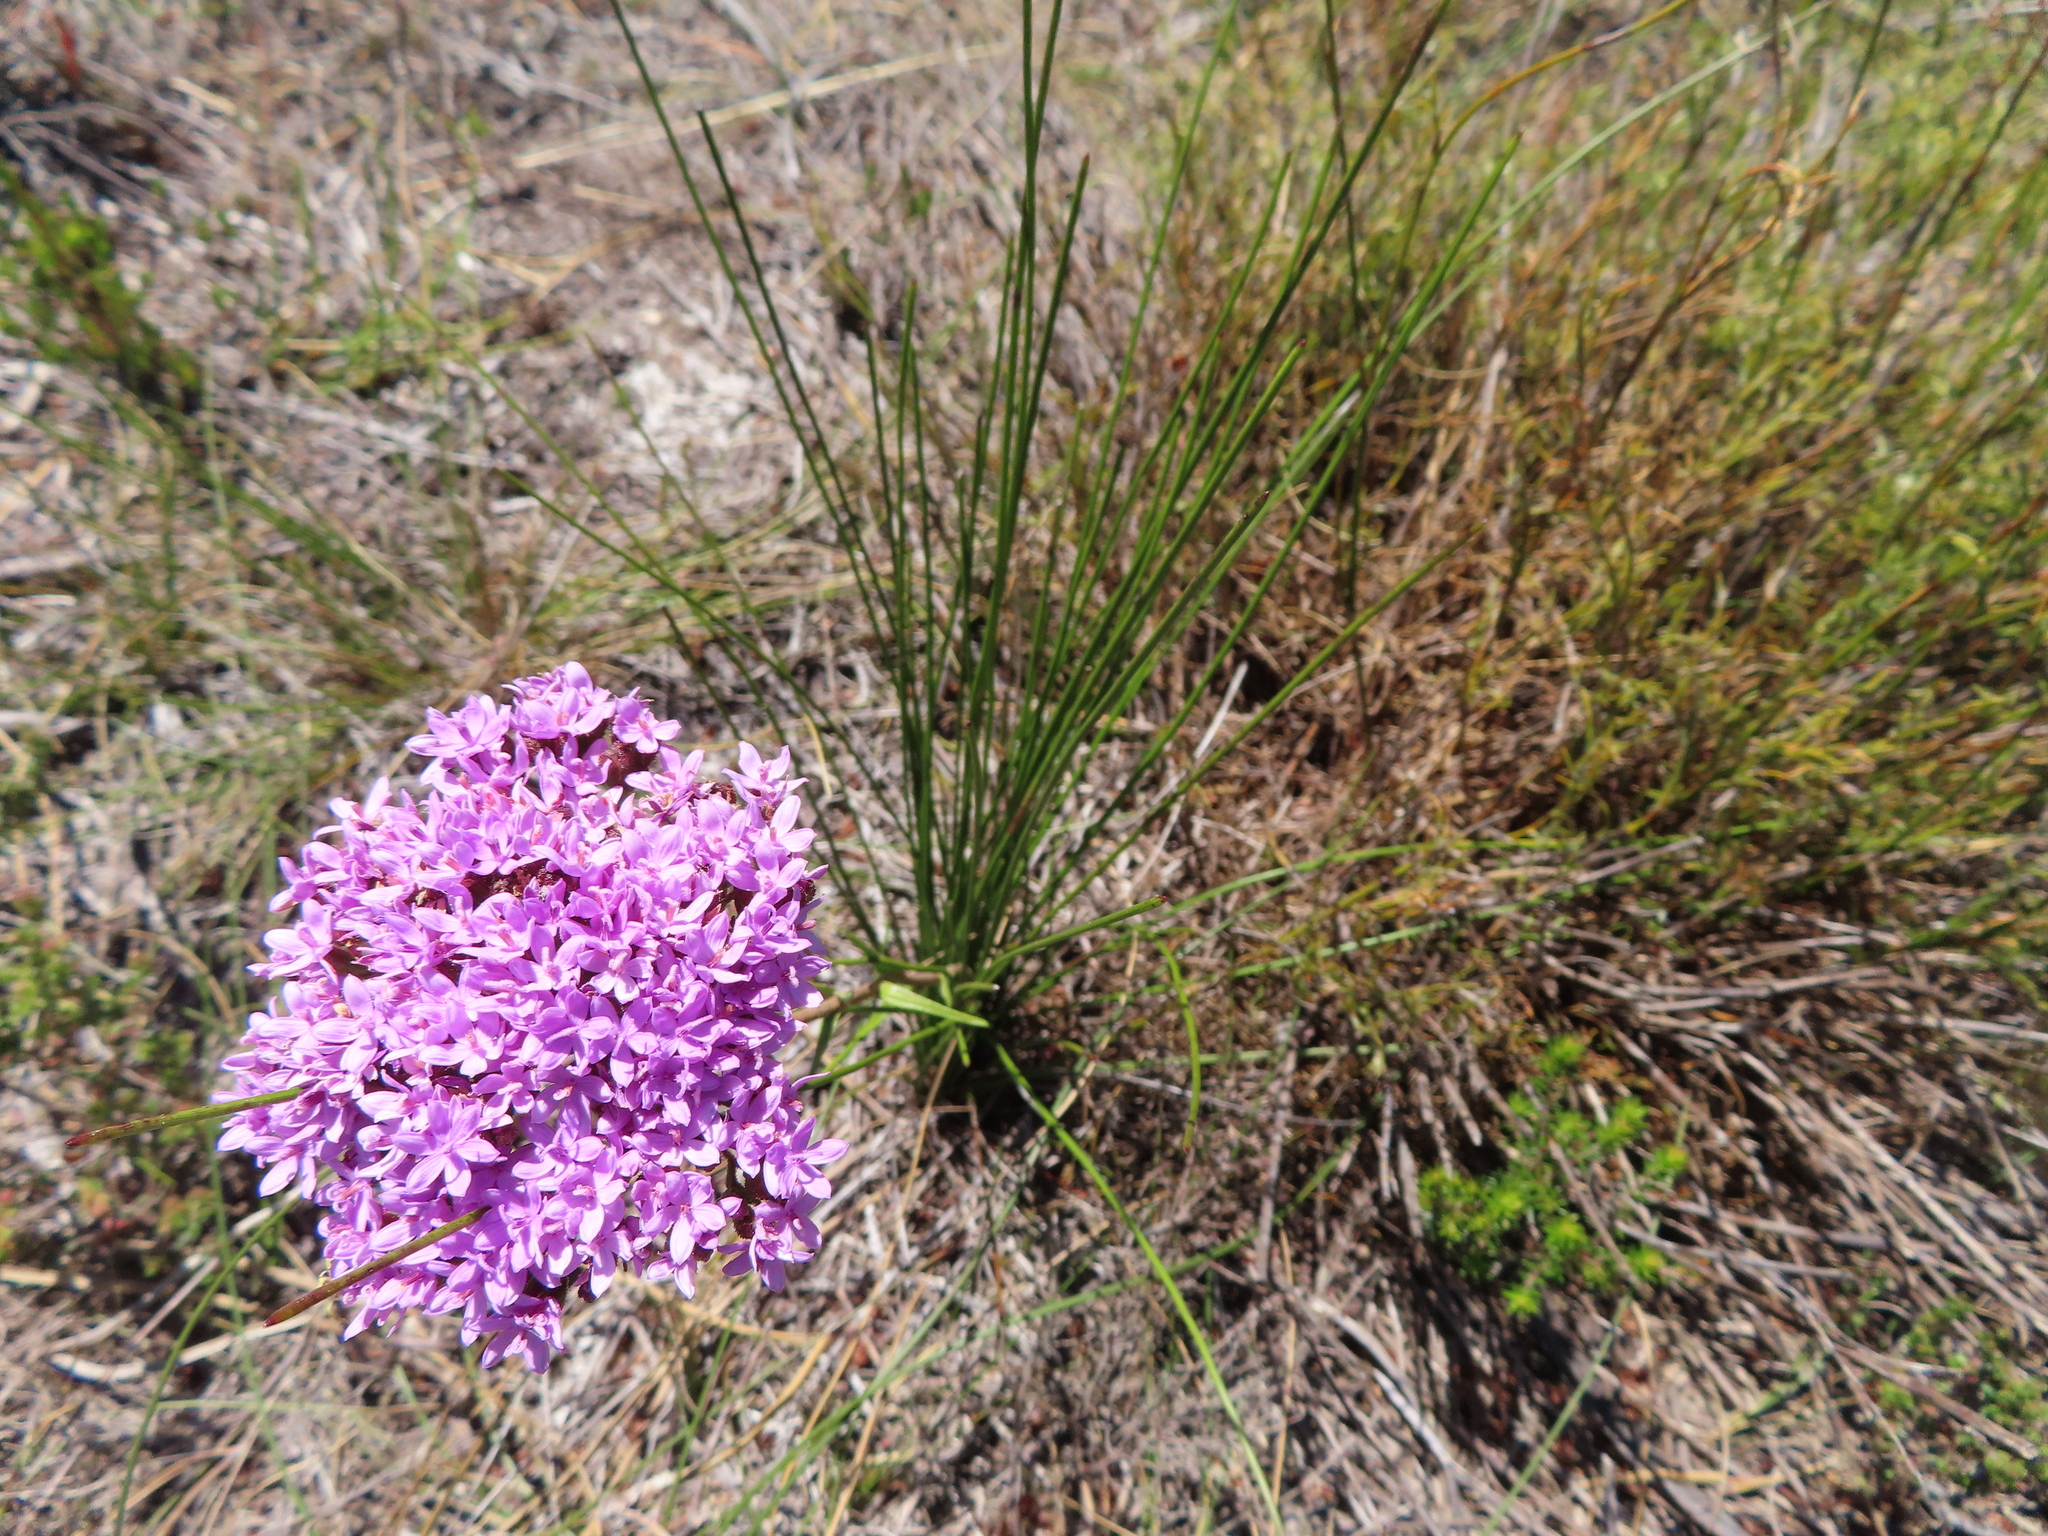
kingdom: Plantae
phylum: Tracheophyta
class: Magnoliopsida
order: Asterales
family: Asteraceae
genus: Corymbium
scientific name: Corymbium glabrum
